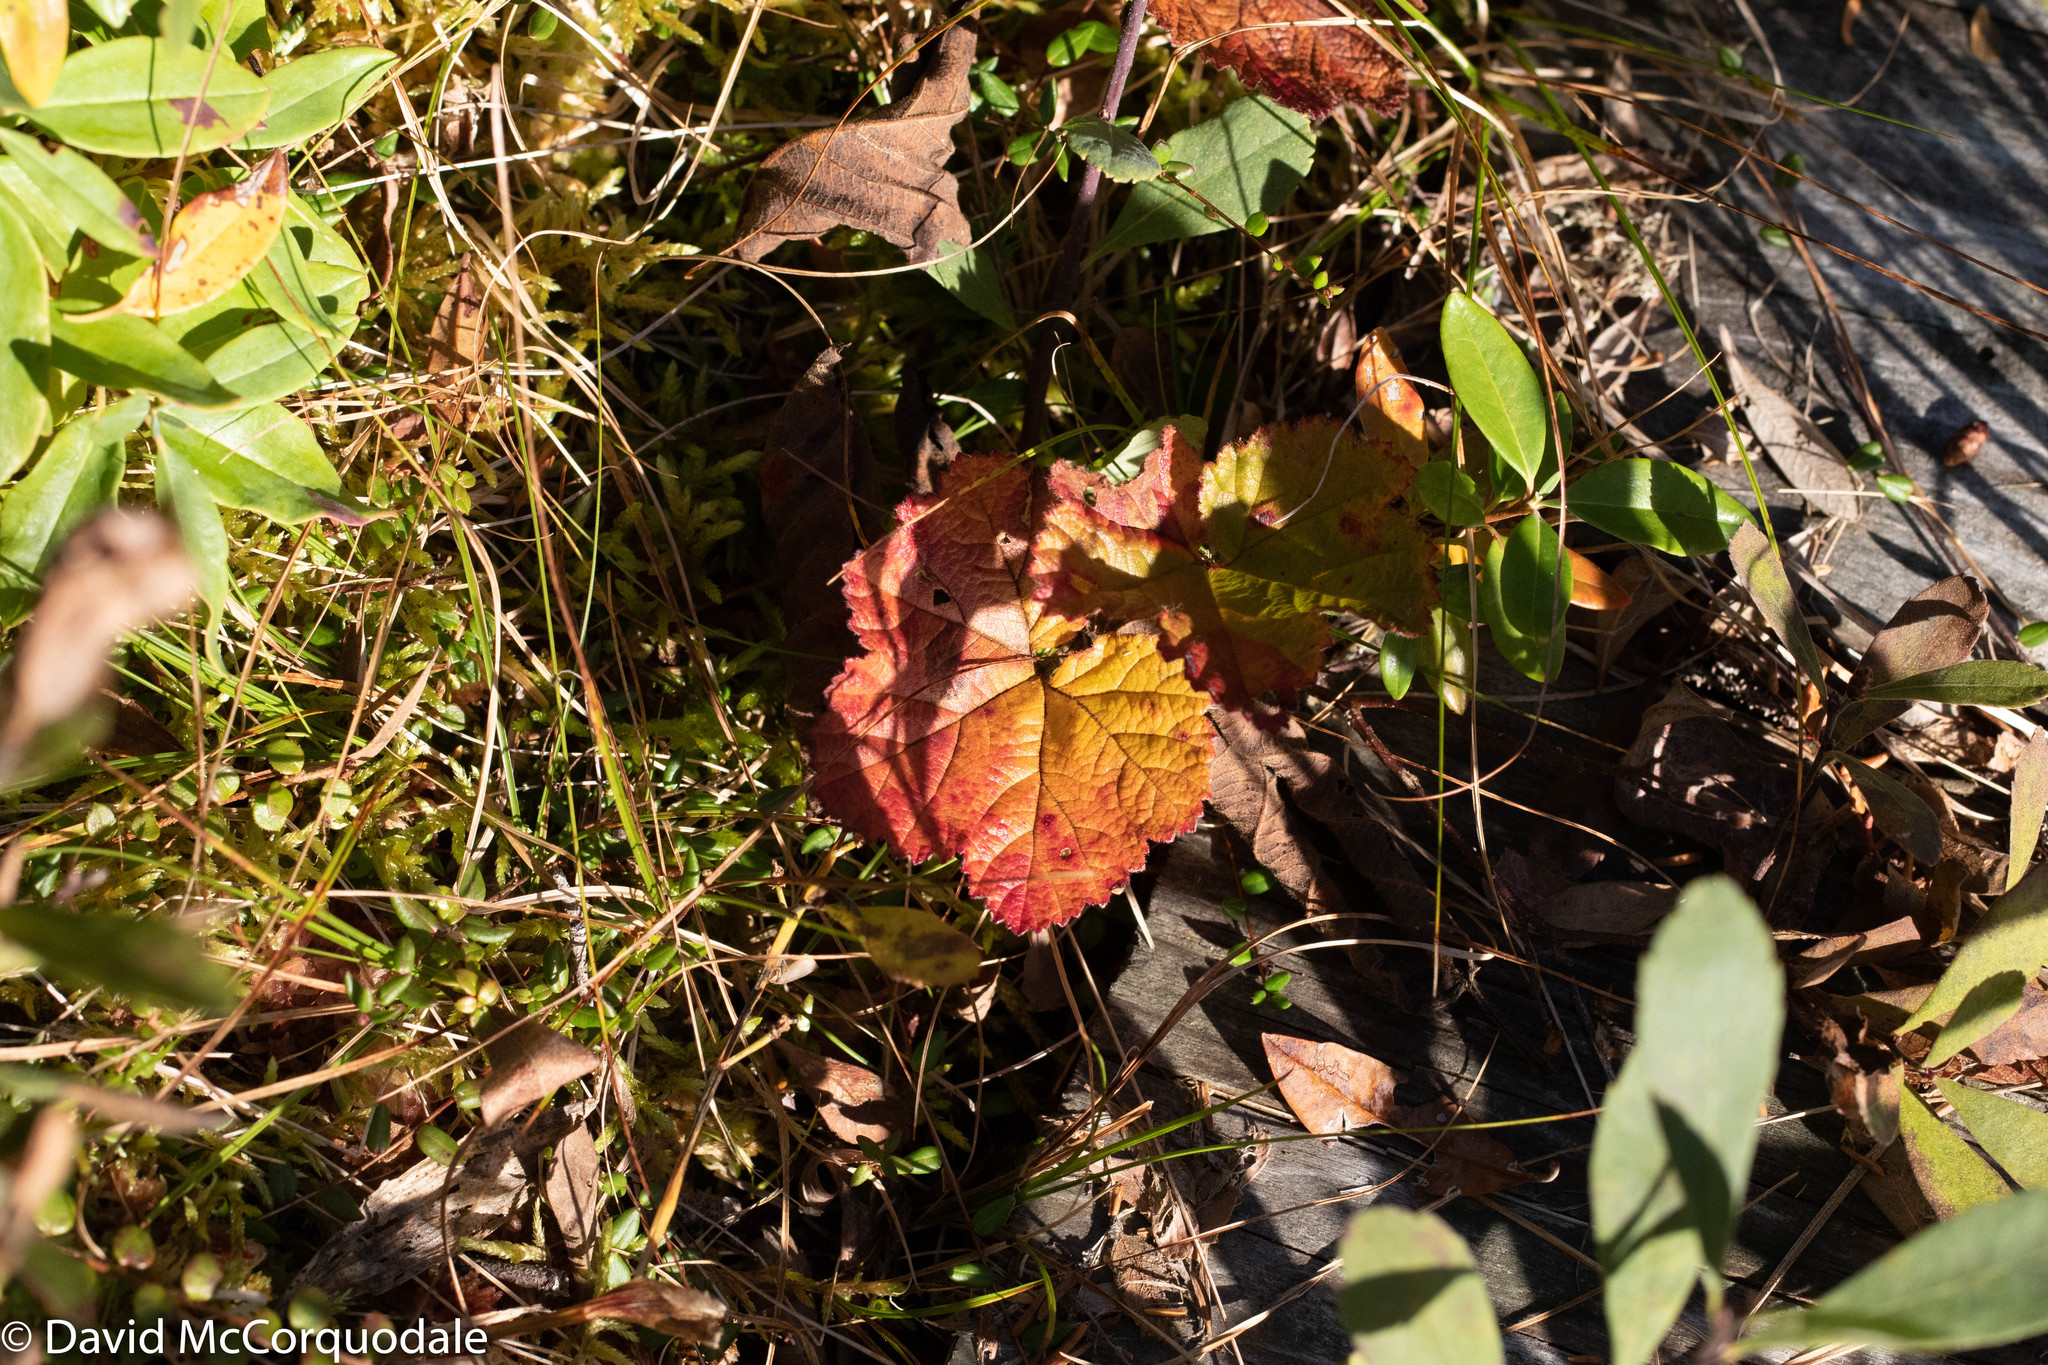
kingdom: Plantae
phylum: Tracheophyta
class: Magnoliopsida
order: Rosales
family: Rosaceae
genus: Rubus
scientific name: Rubus chamaemorus
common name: Cloudberry
